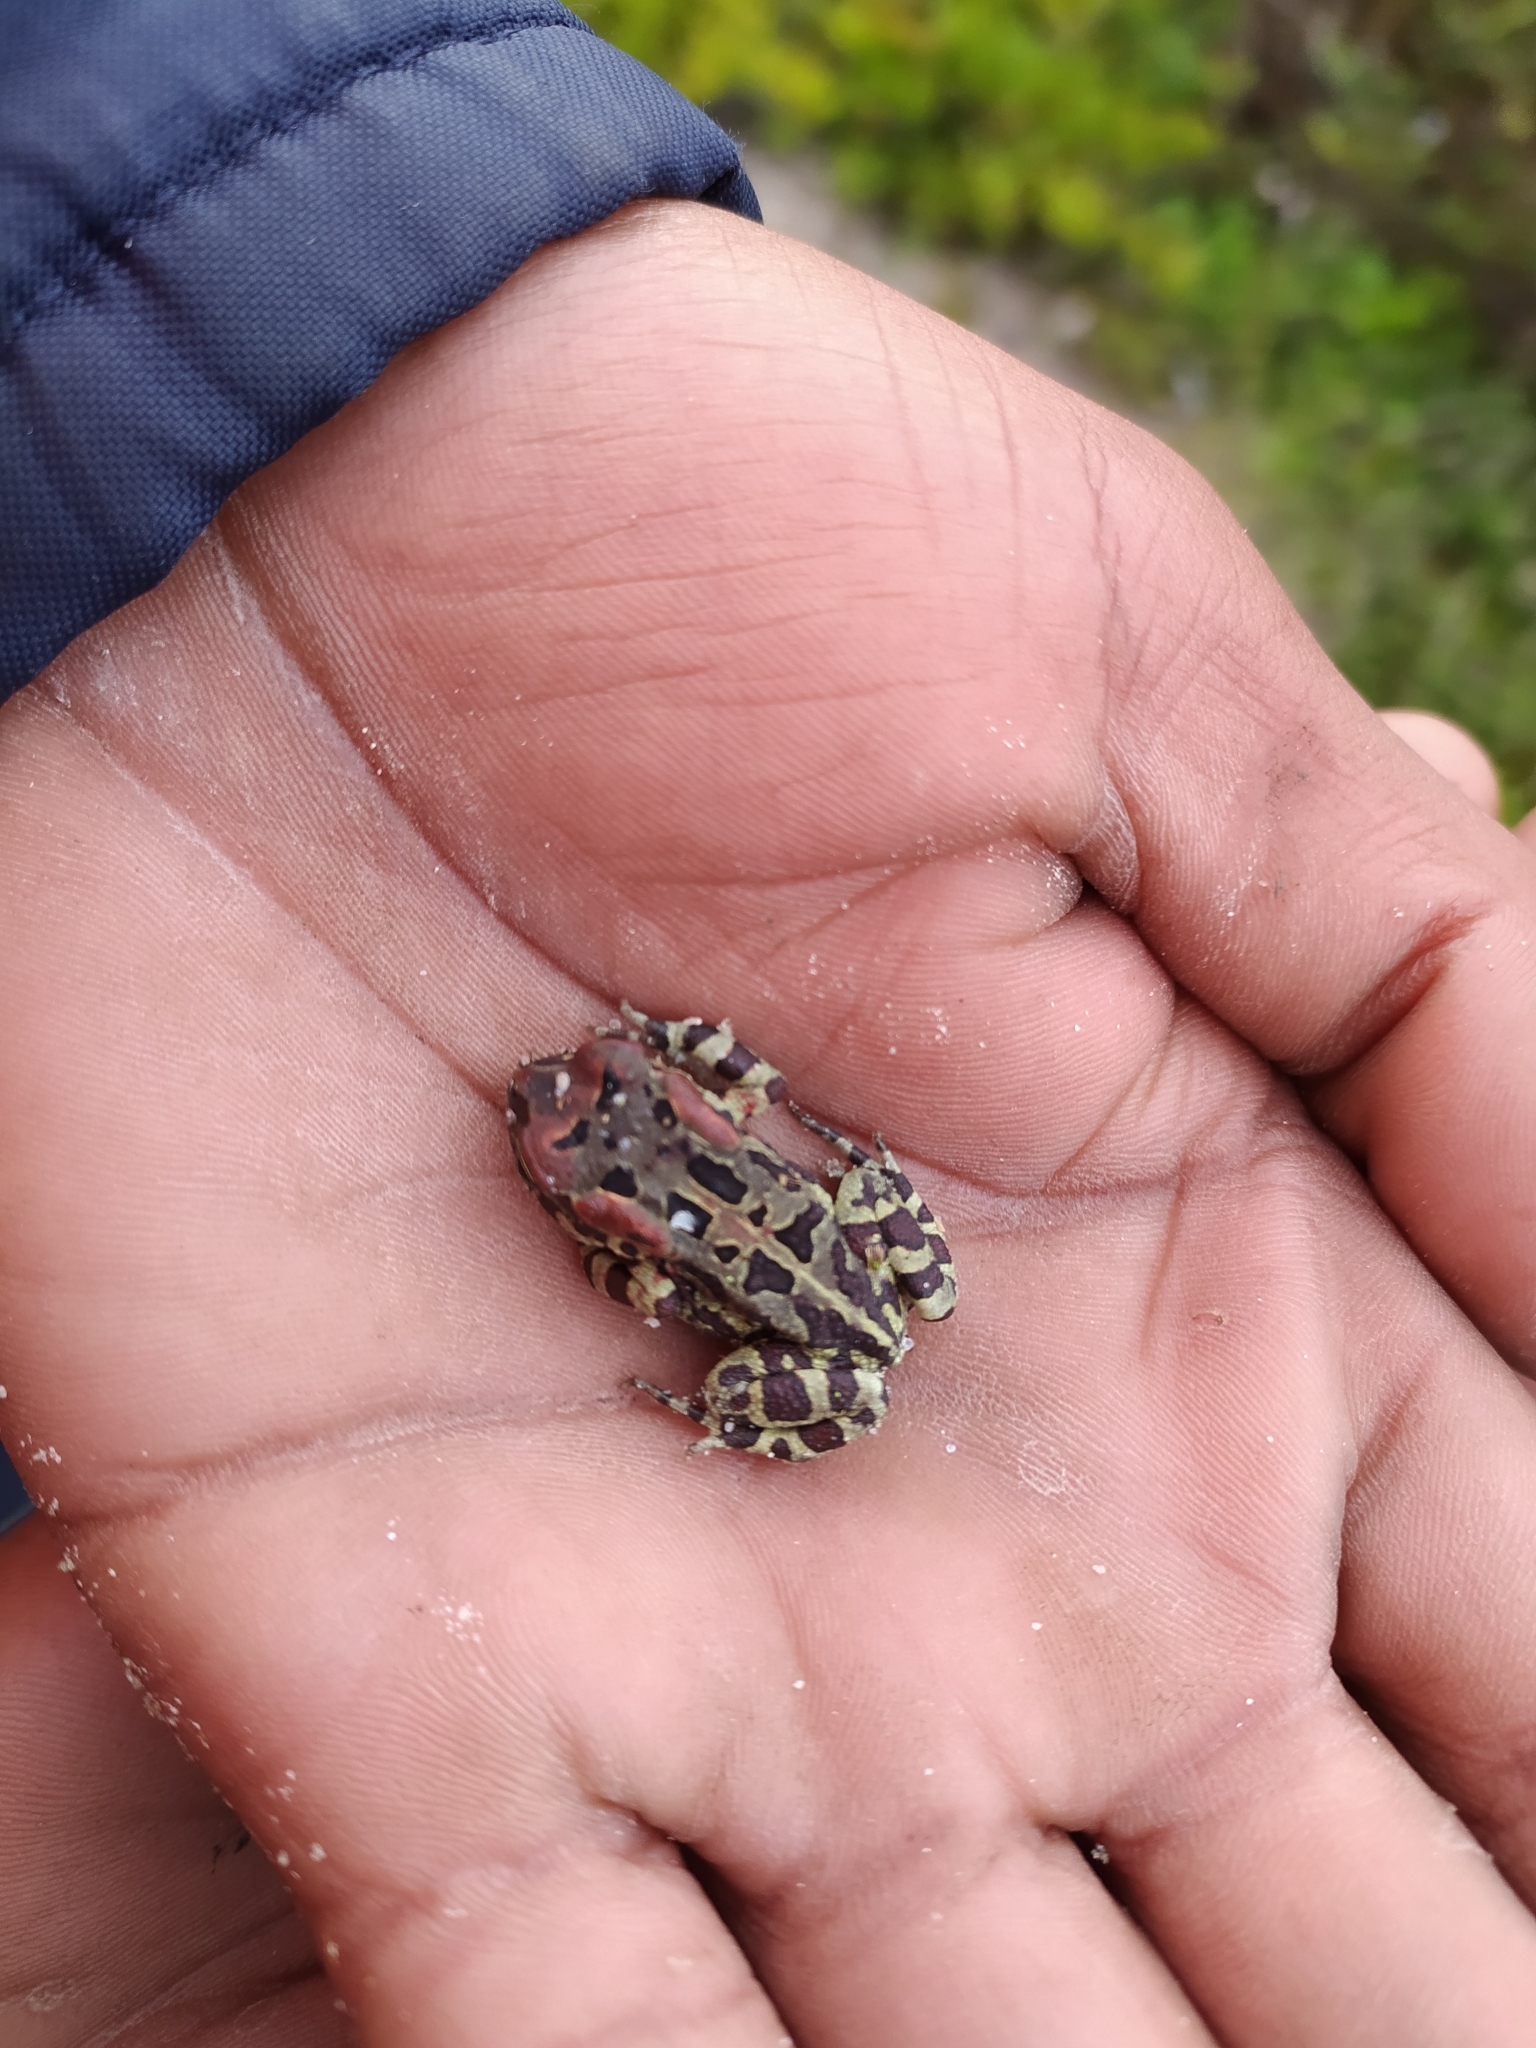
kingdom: Animalia
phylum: Chordata
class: Amphibia
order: Anura
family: Bufonidae
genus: Sclerophrys
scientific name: Sclerophrys pantherina
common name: Panther toad
